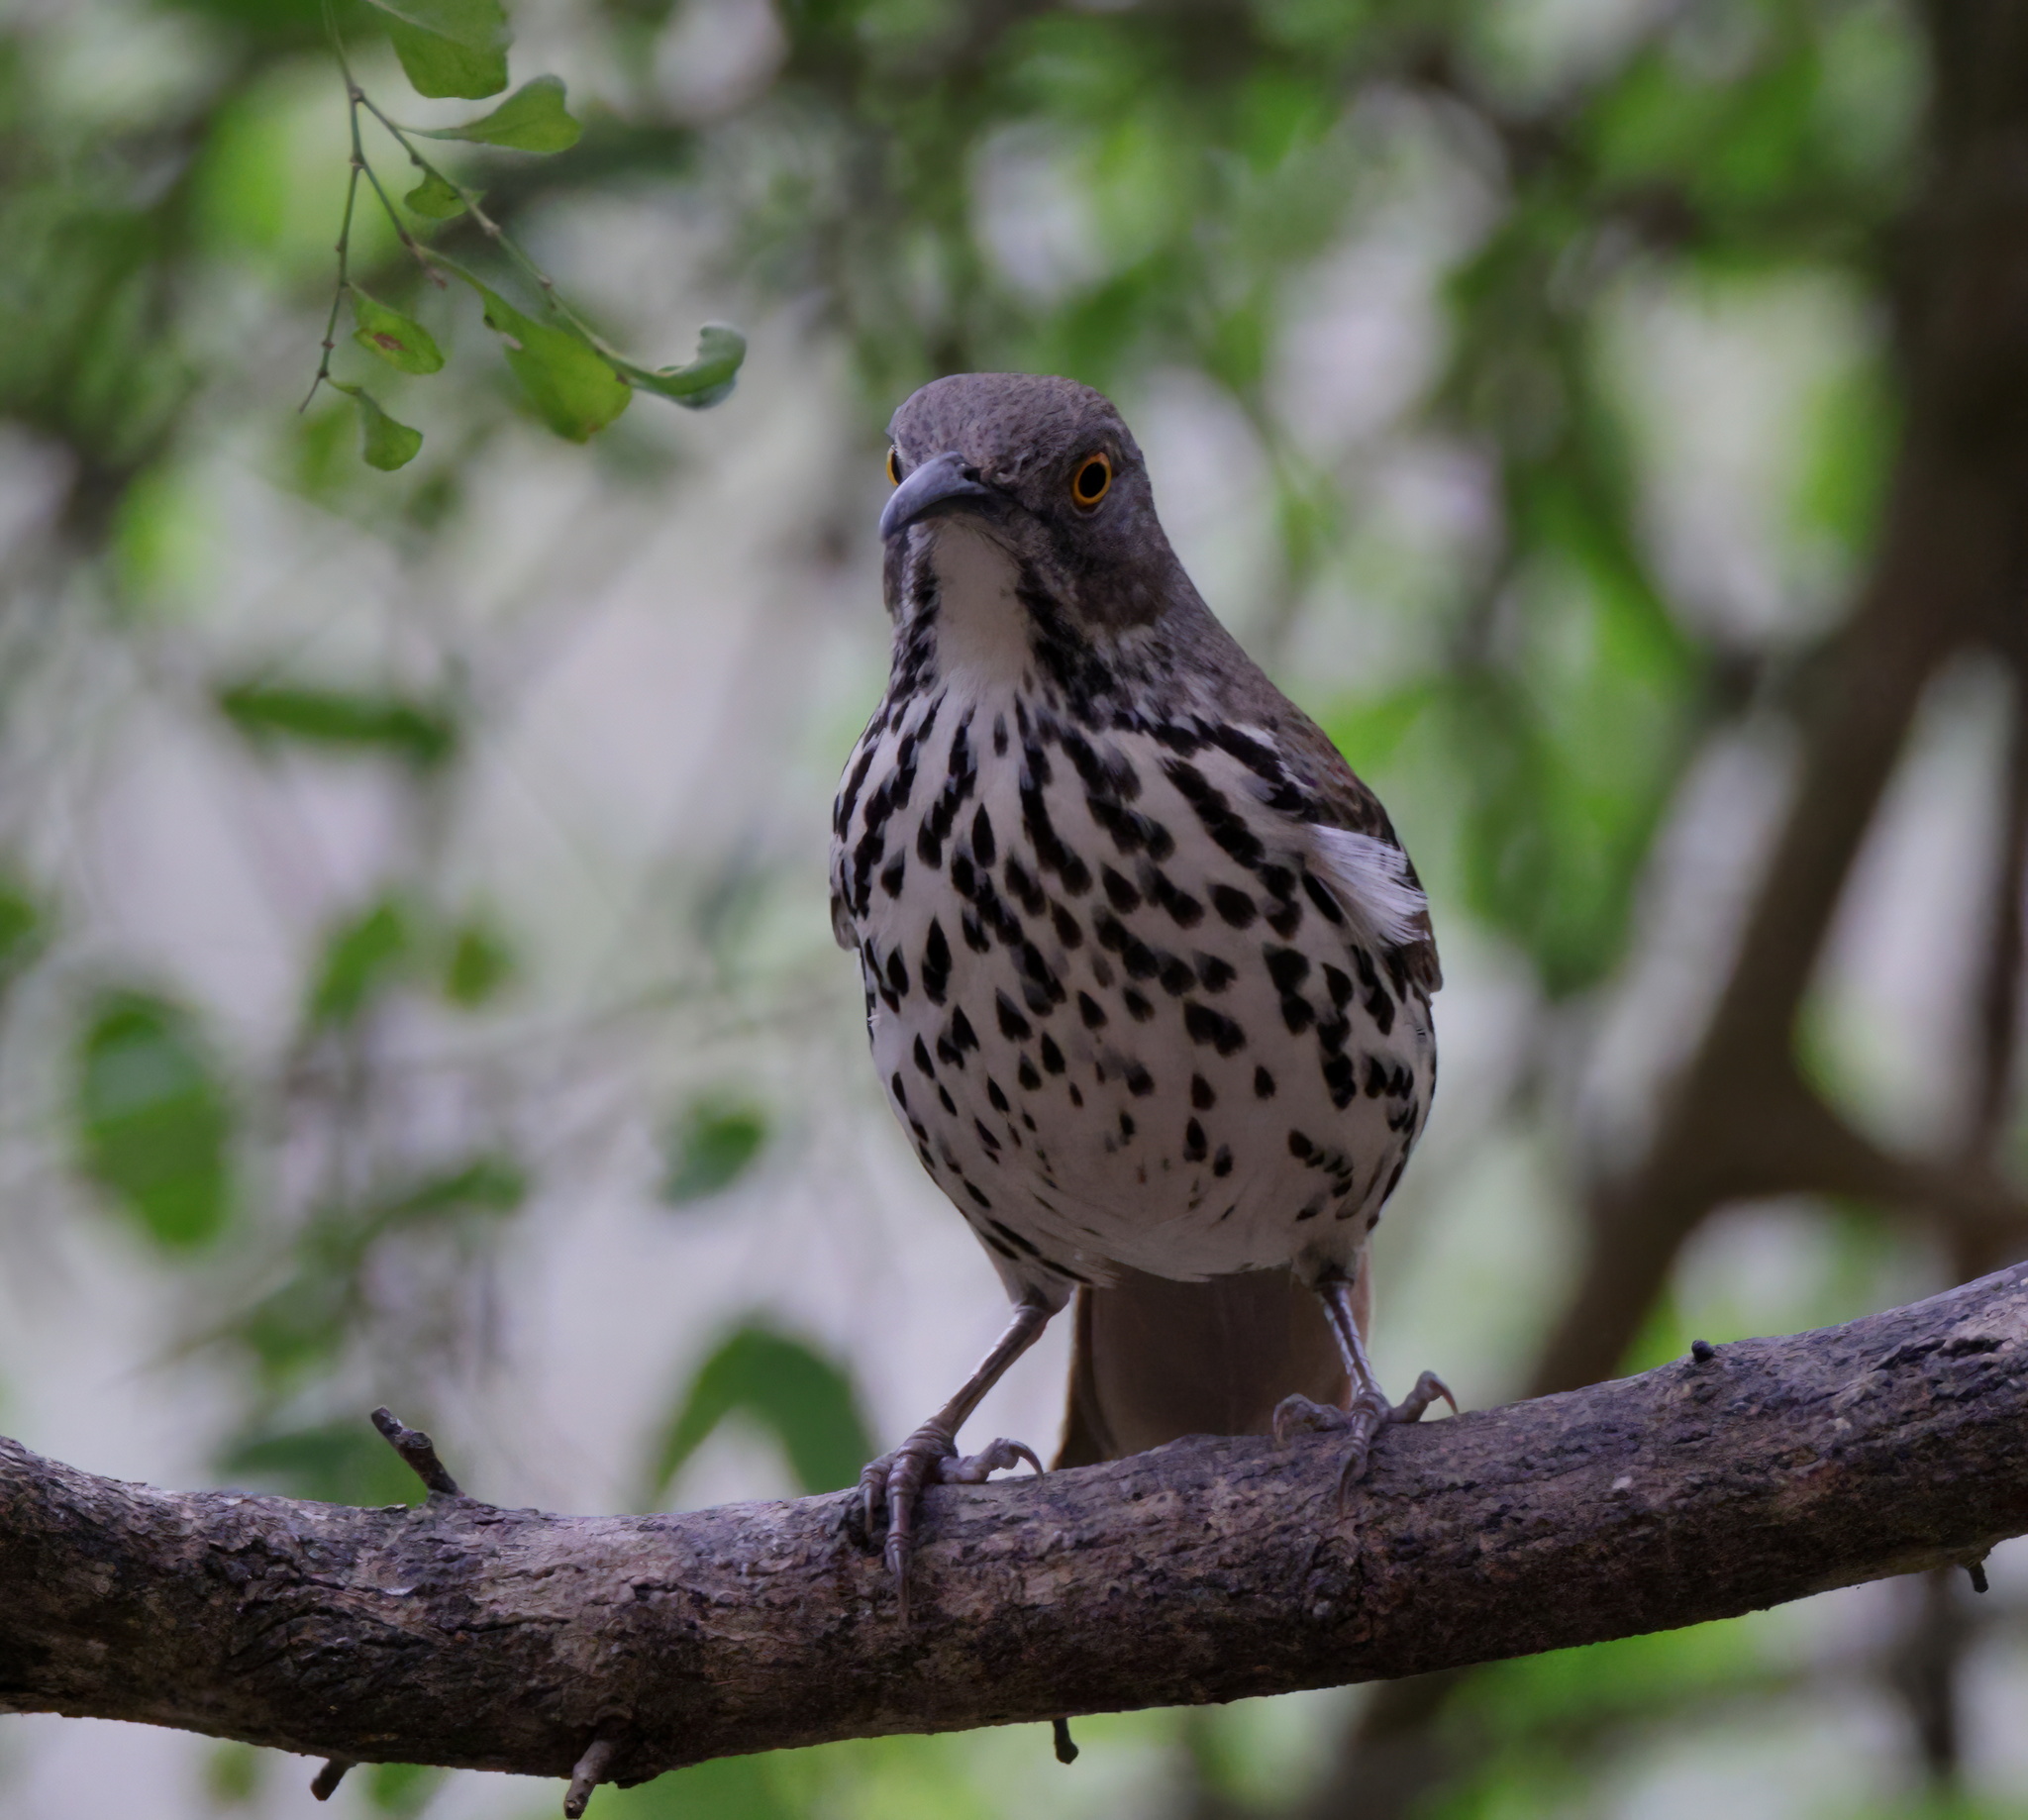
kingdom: Animalia
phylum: Chordata
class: Aves
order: Passeriformes
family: Mimidae
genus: Toxostoma
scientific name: Toxostoma longirostre
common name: Long-billed thrasher
